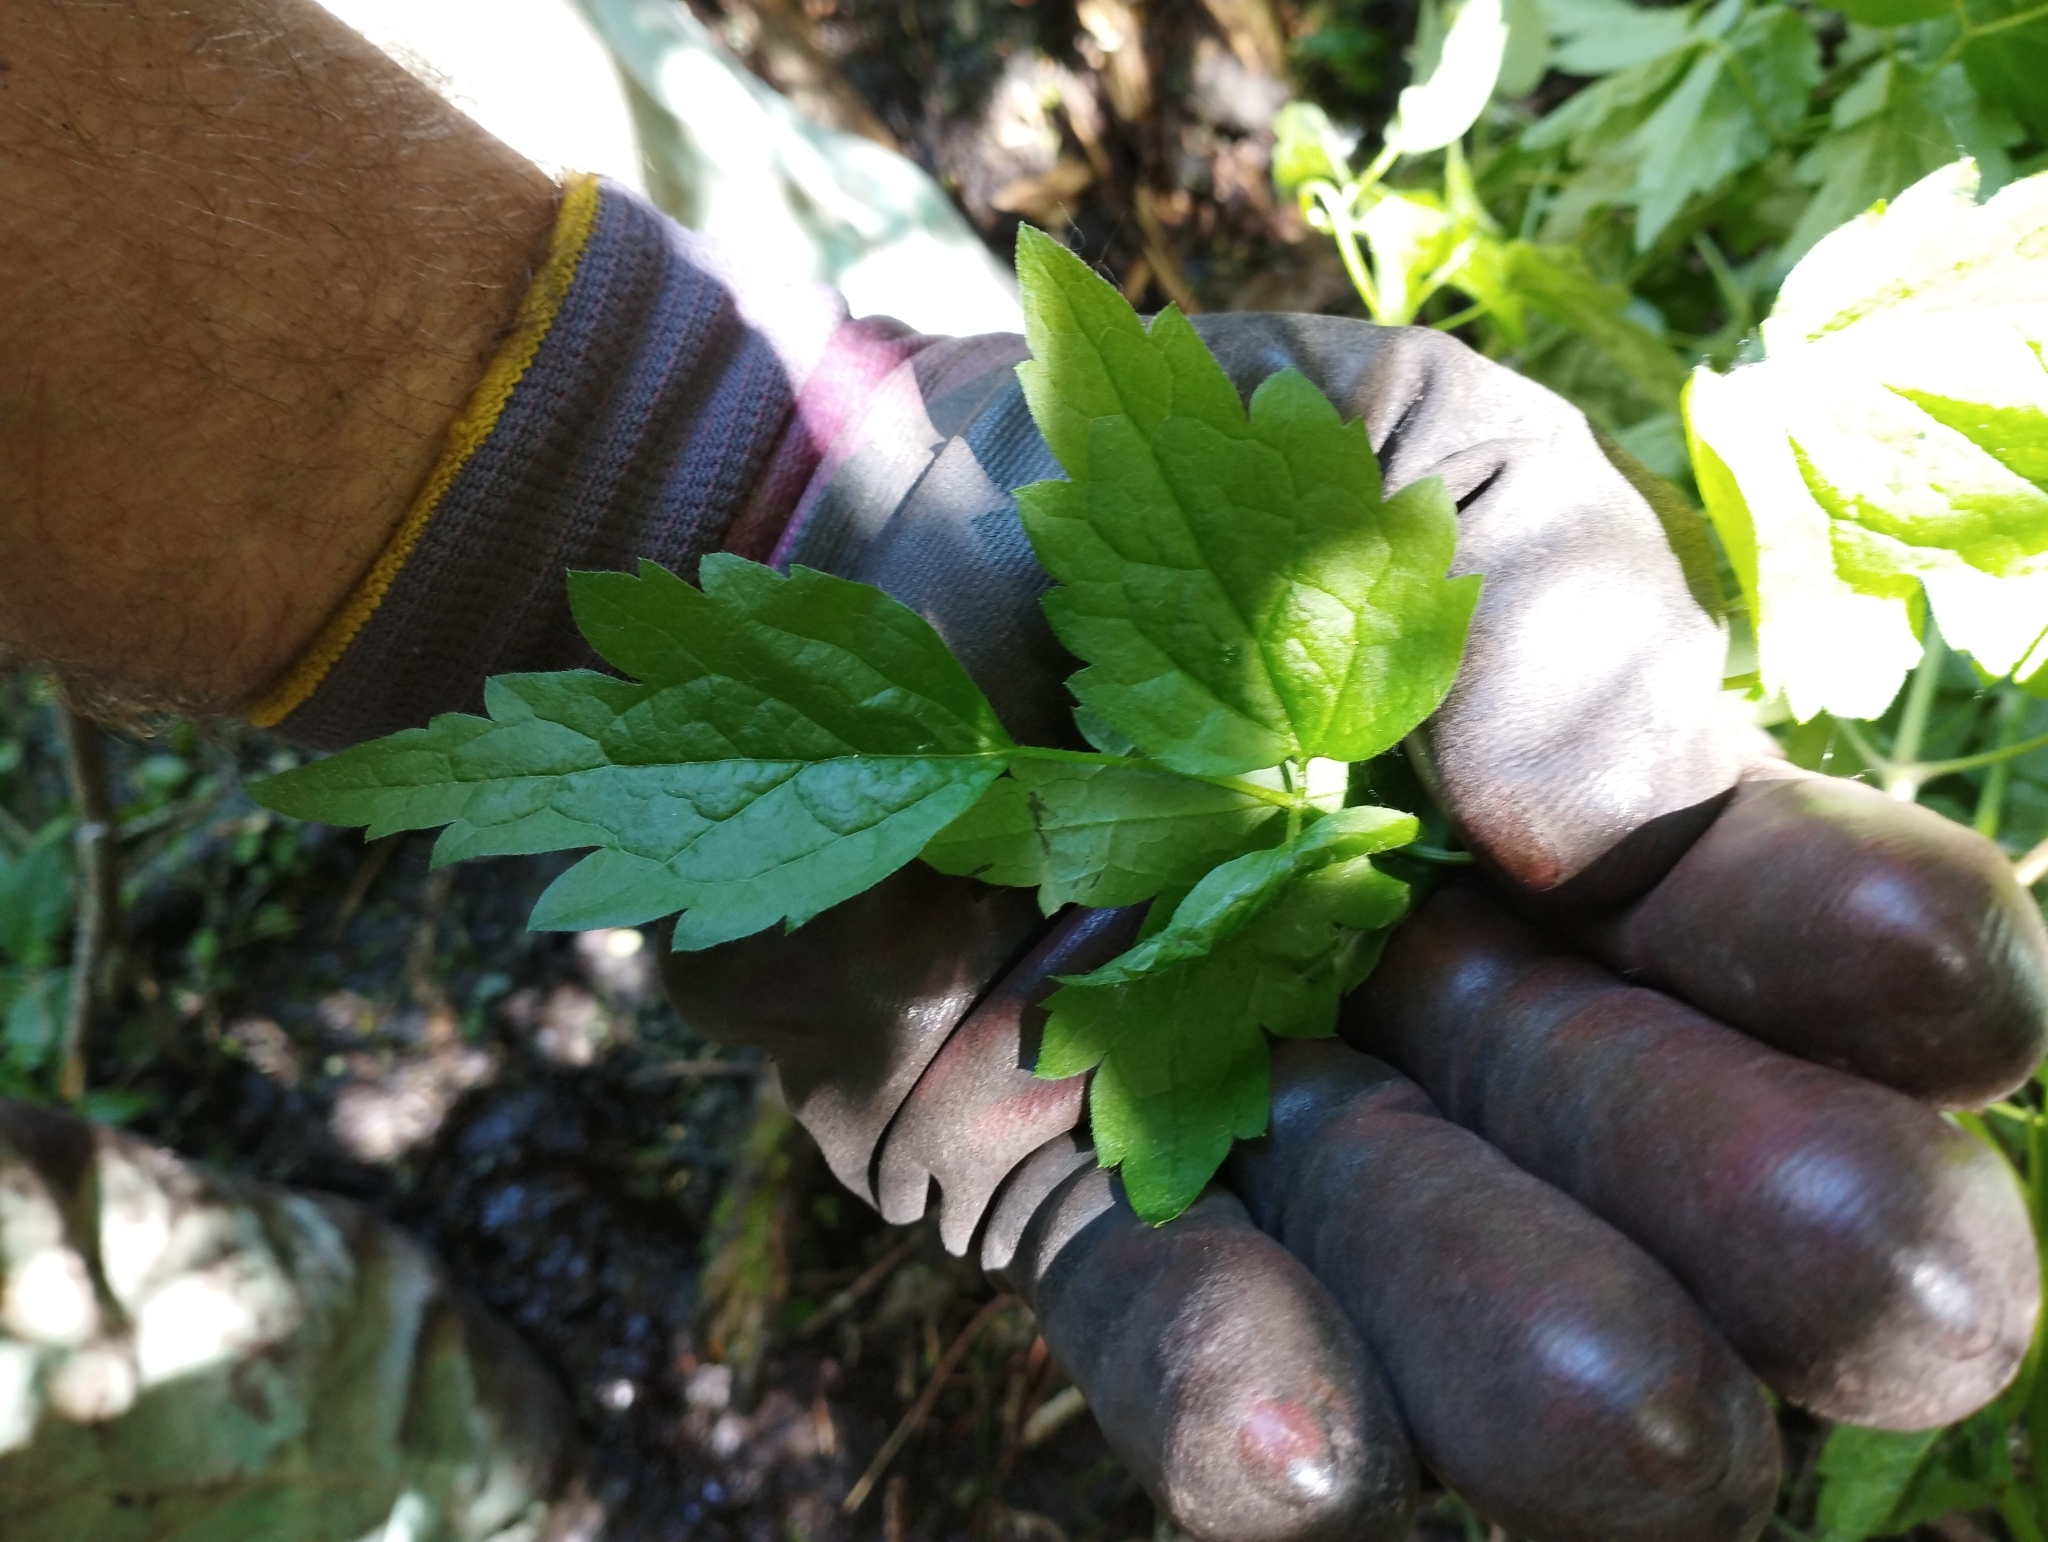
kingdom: Plantae
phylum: Tracheophyta
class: Magnoliopsida
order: Ranunculales
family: Ranunculaceae
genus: Clematis
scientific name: Clematis vitalba
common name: Evergreen clematis
